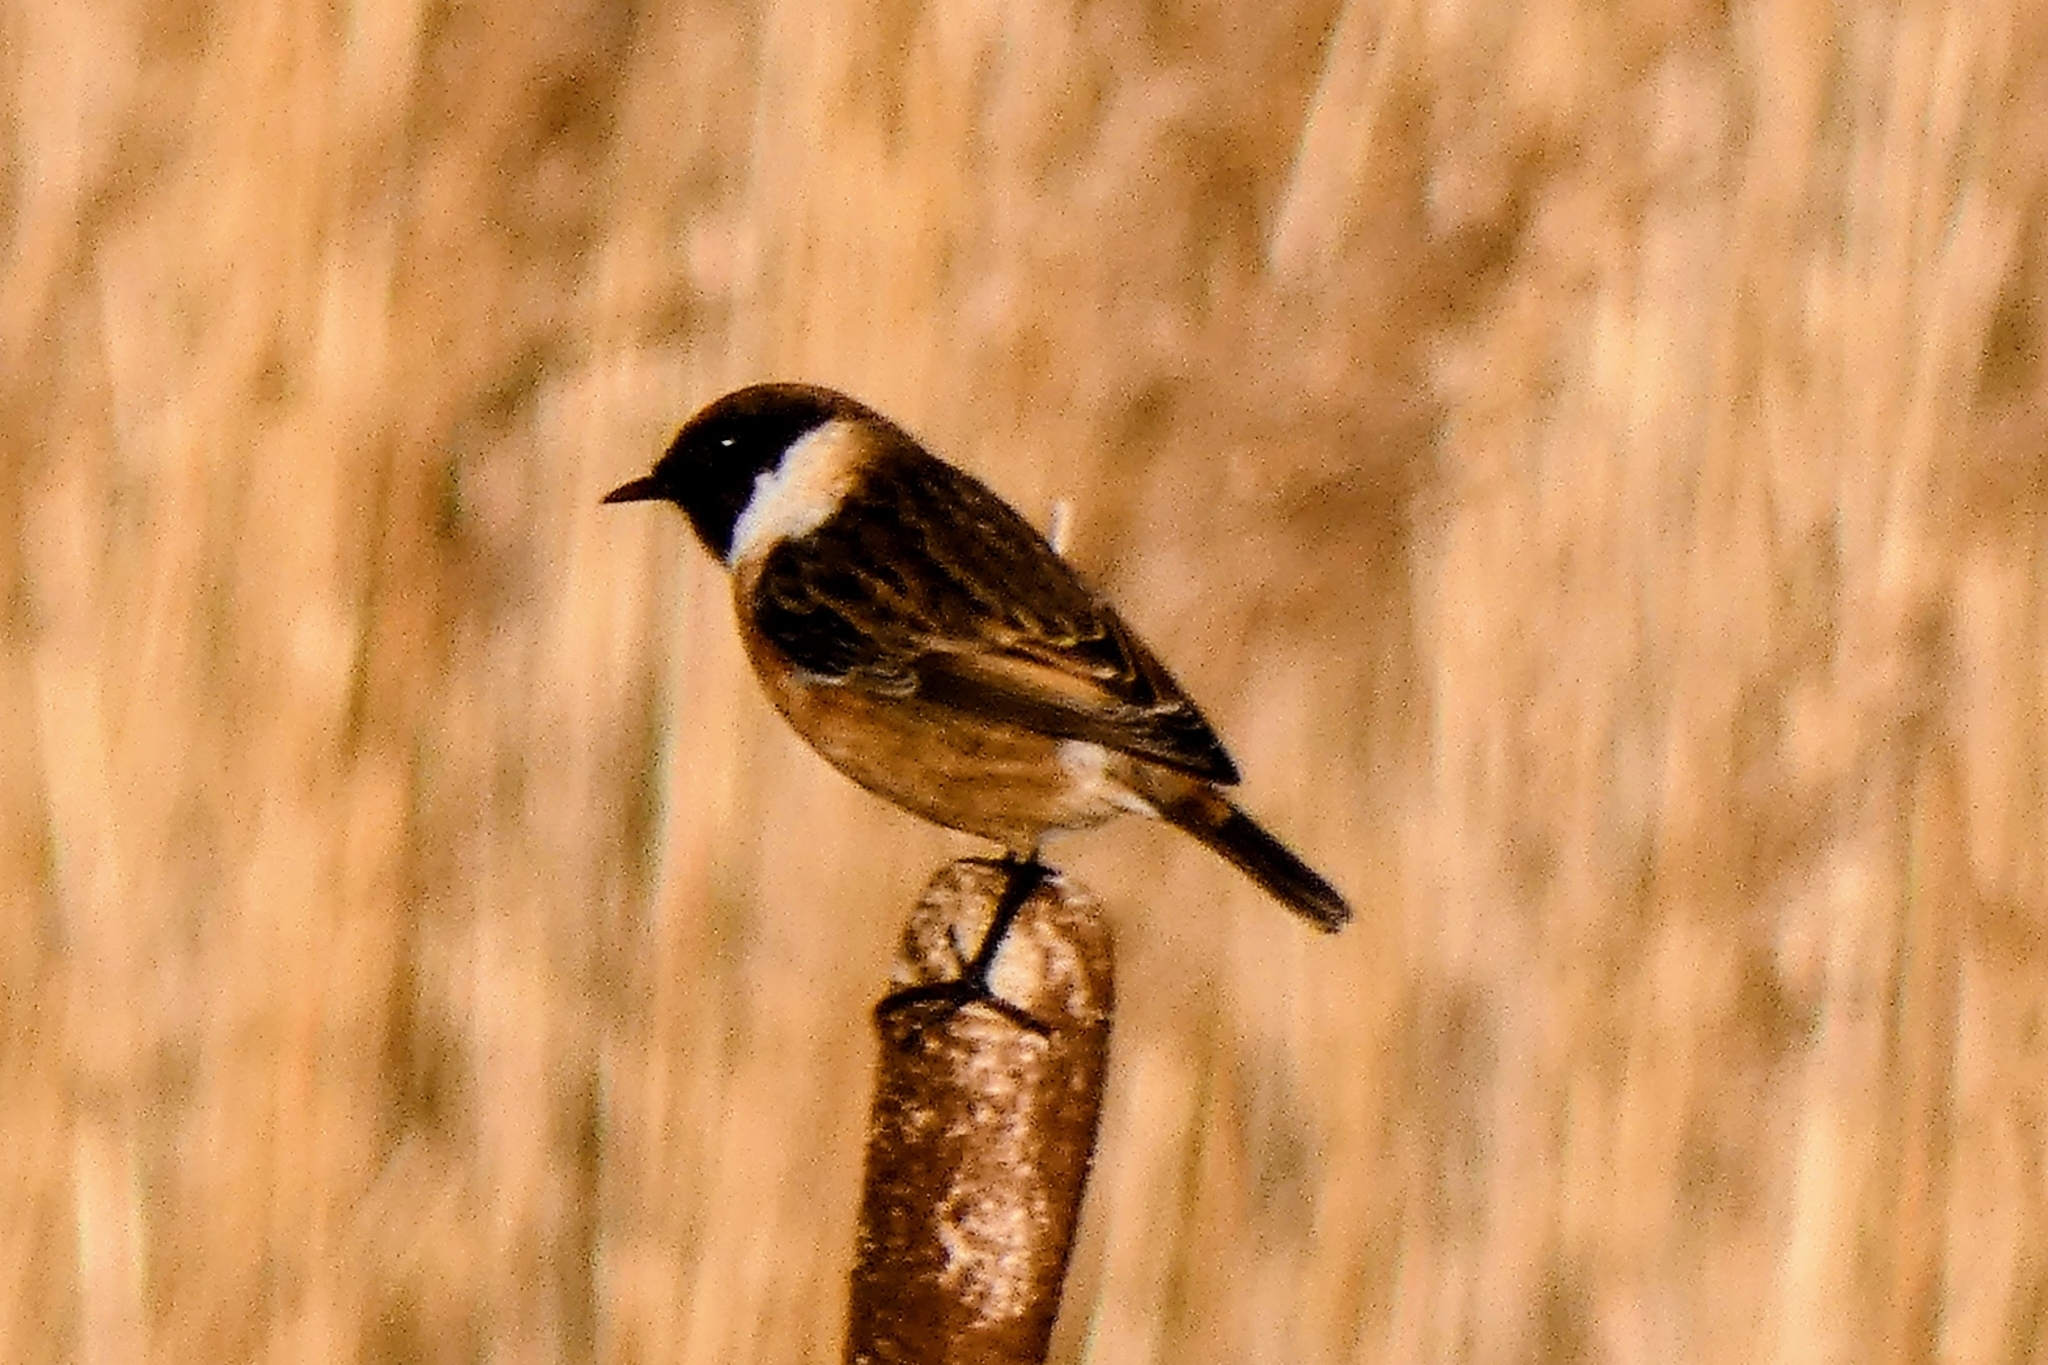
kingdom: Animalia
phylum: Chordata
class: Aves
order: Passeriformes
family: Muscicapidae
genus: Saxicola
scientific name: Saxicola rubicola
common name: European stonechat
